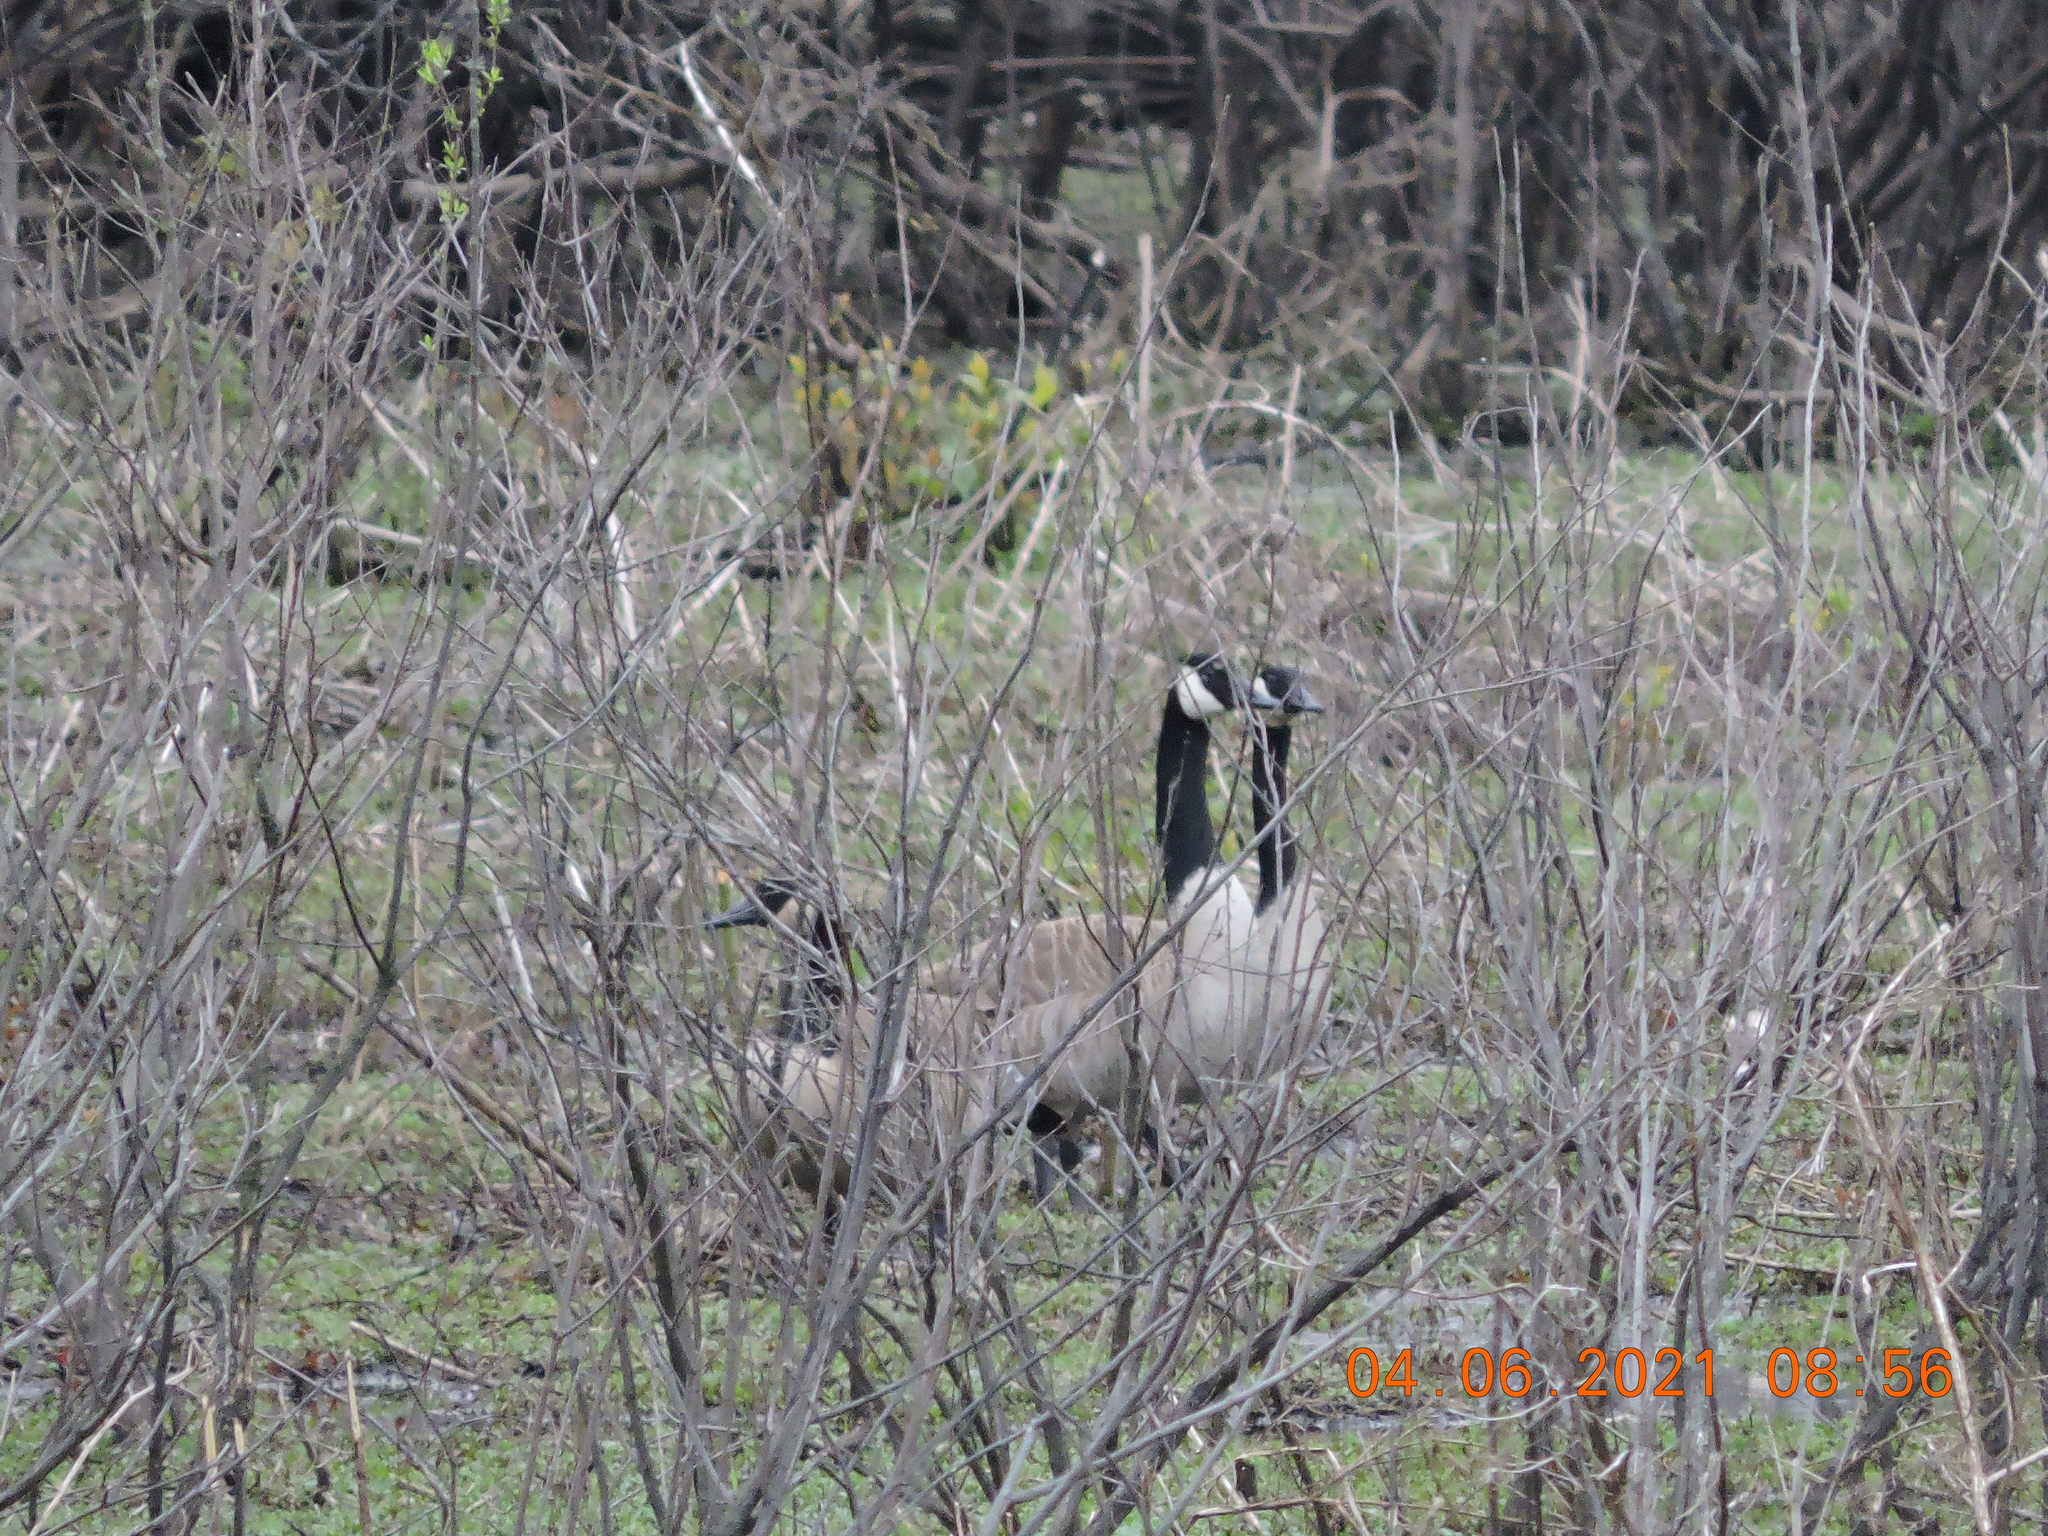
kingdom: Animalia
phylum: Chordata
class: Aves
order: Anseriformes
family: Anatidae
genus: Branta
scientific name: Branta canadensis
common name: Canada goose
